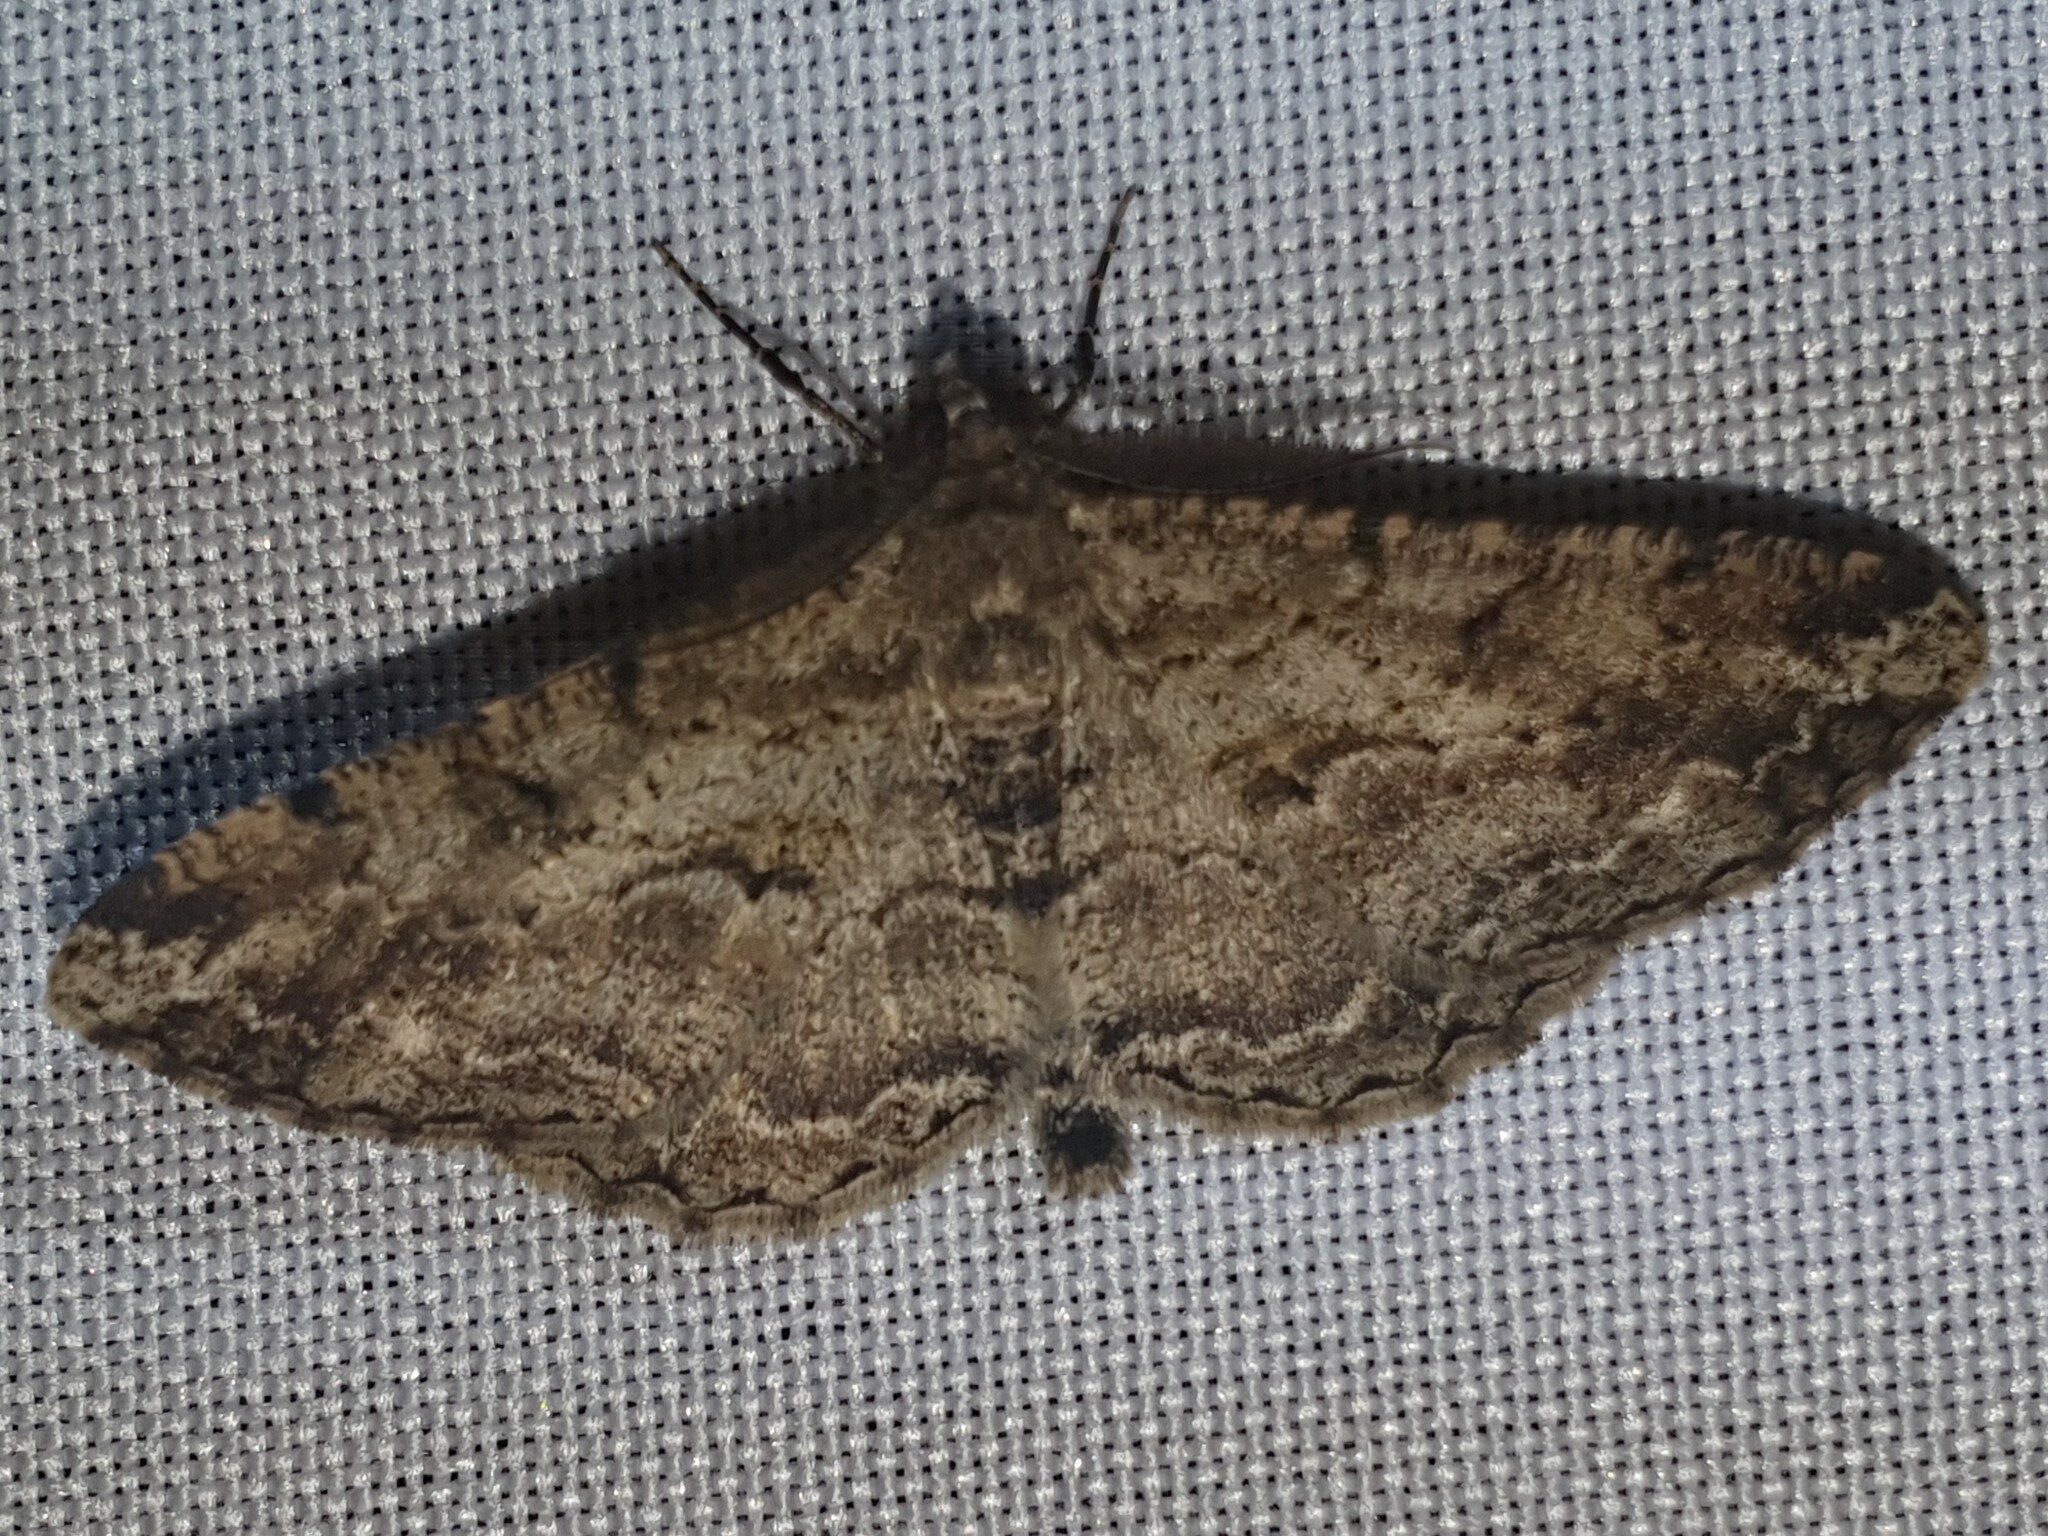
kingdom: Animalia
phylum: Arthropoda
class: Insecta
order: Lepidoptera
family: Geometridae
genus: Peribatodes
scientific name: Peribatodes rhomboidaria
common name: Willow beauty
